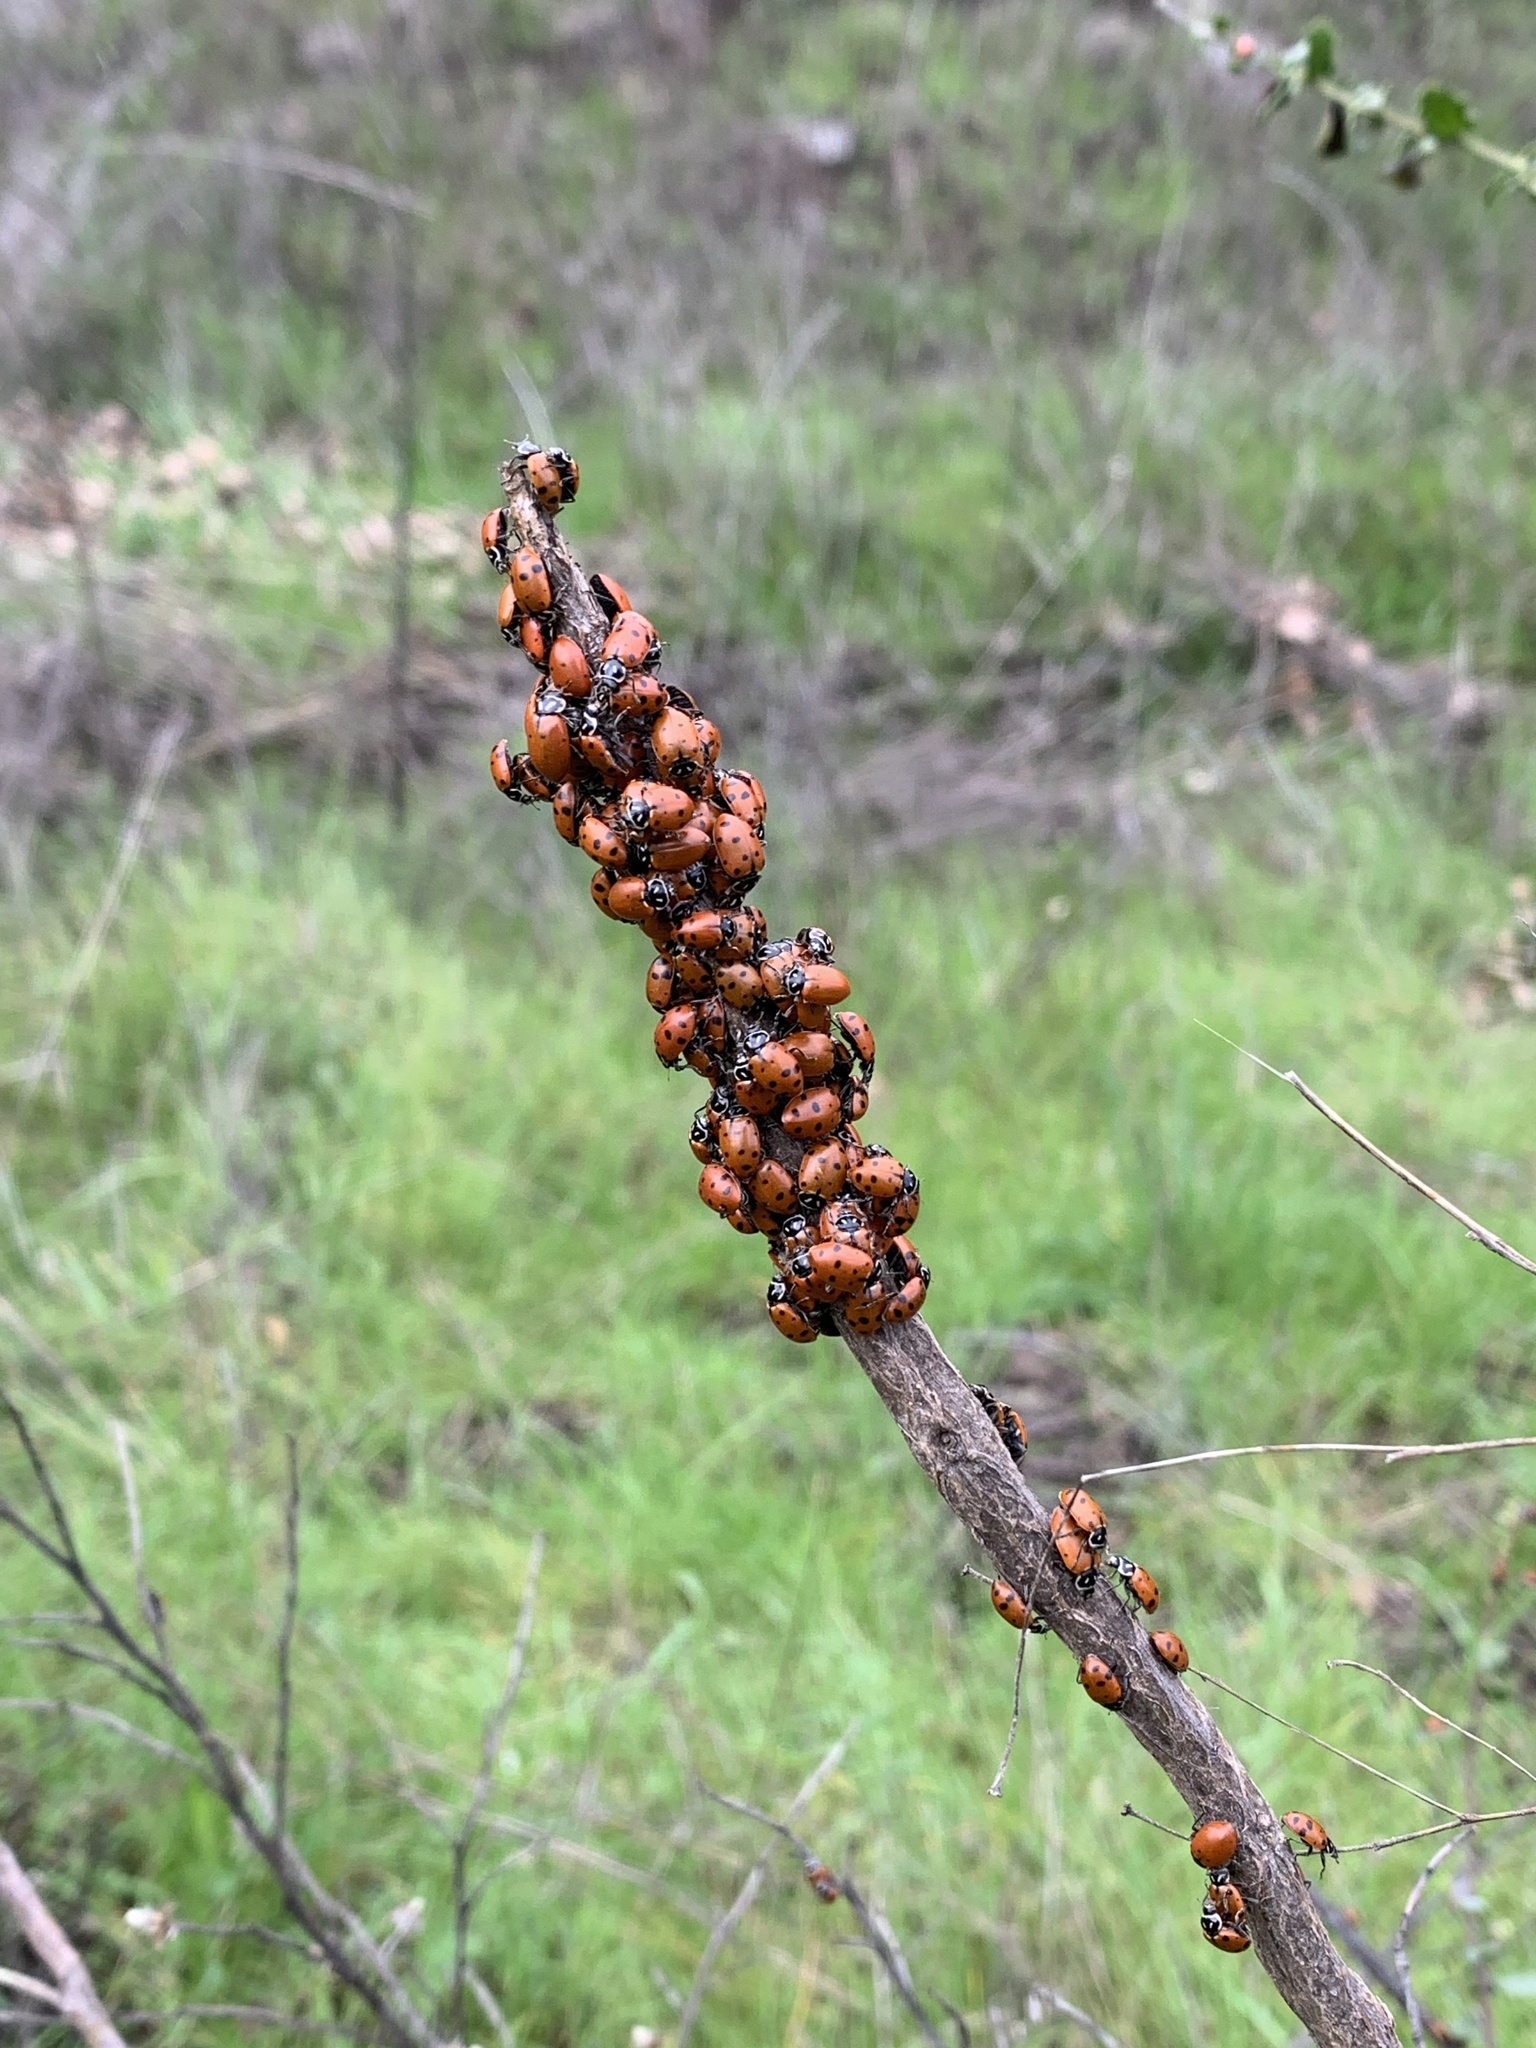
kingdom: Animalia
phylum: Arthropoda
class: Insecta
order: Coleoptera
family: Coccinellidae
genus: Hippodamia
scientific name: Hippodamia convergens
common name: Convergent lady beetle
